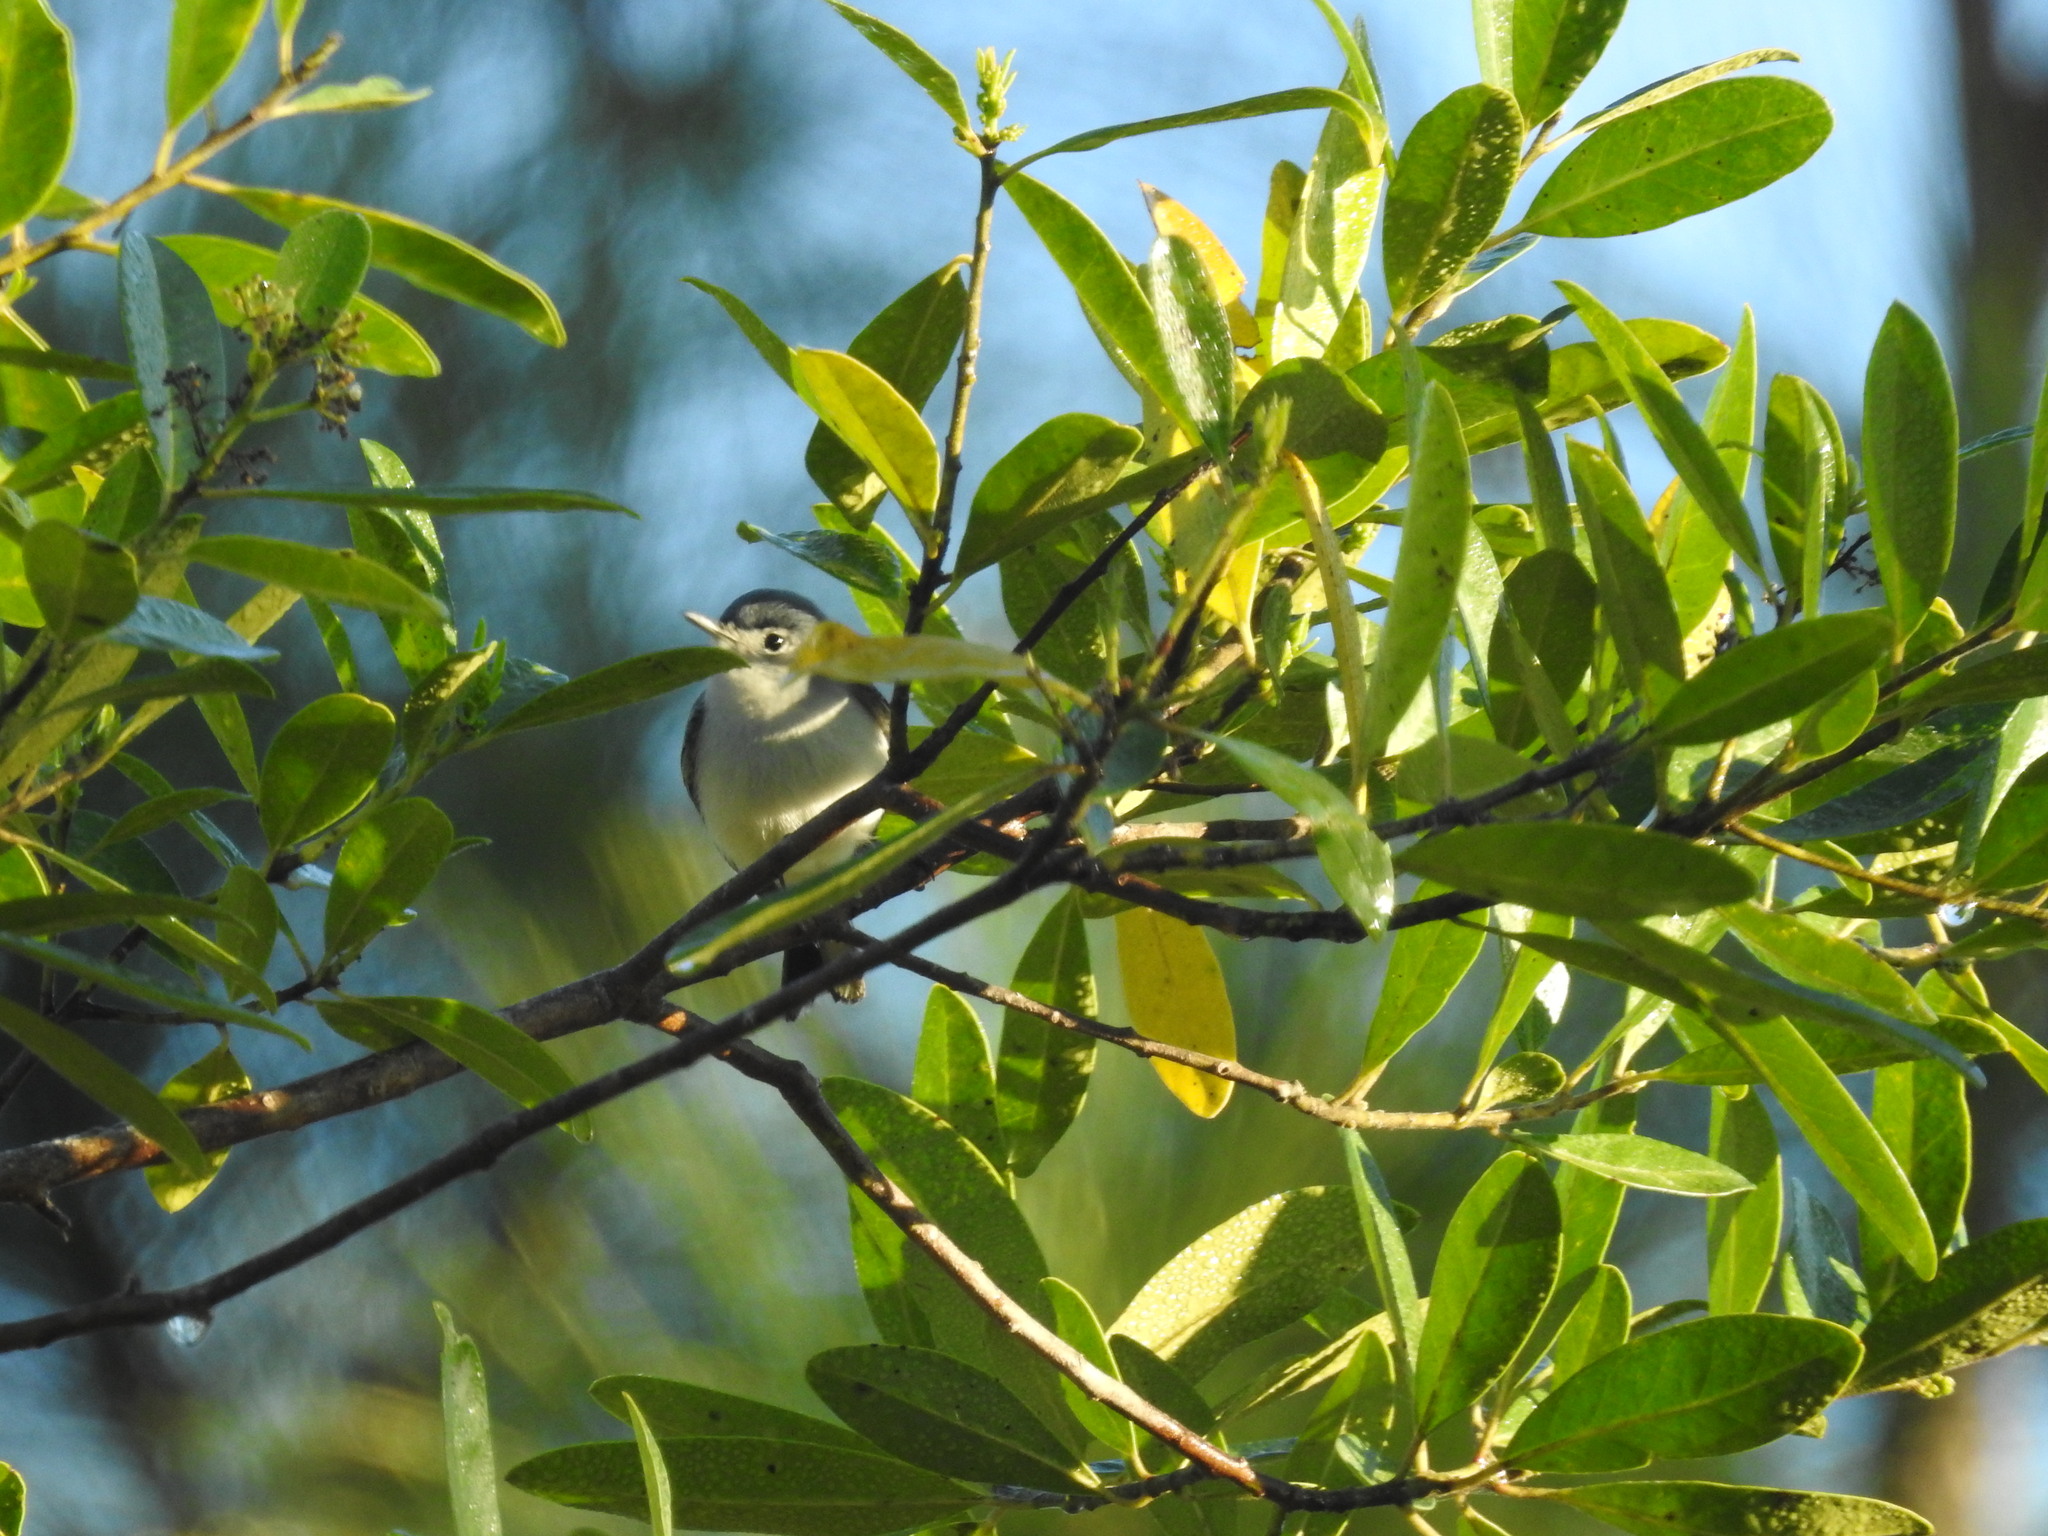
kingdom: Animalia
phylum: Chordata
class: Aves
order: Passeriformes
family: Polioptilidae
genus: Polioptila
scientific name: Polioptila caerulea
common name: Blue-gray gnatcatcher
